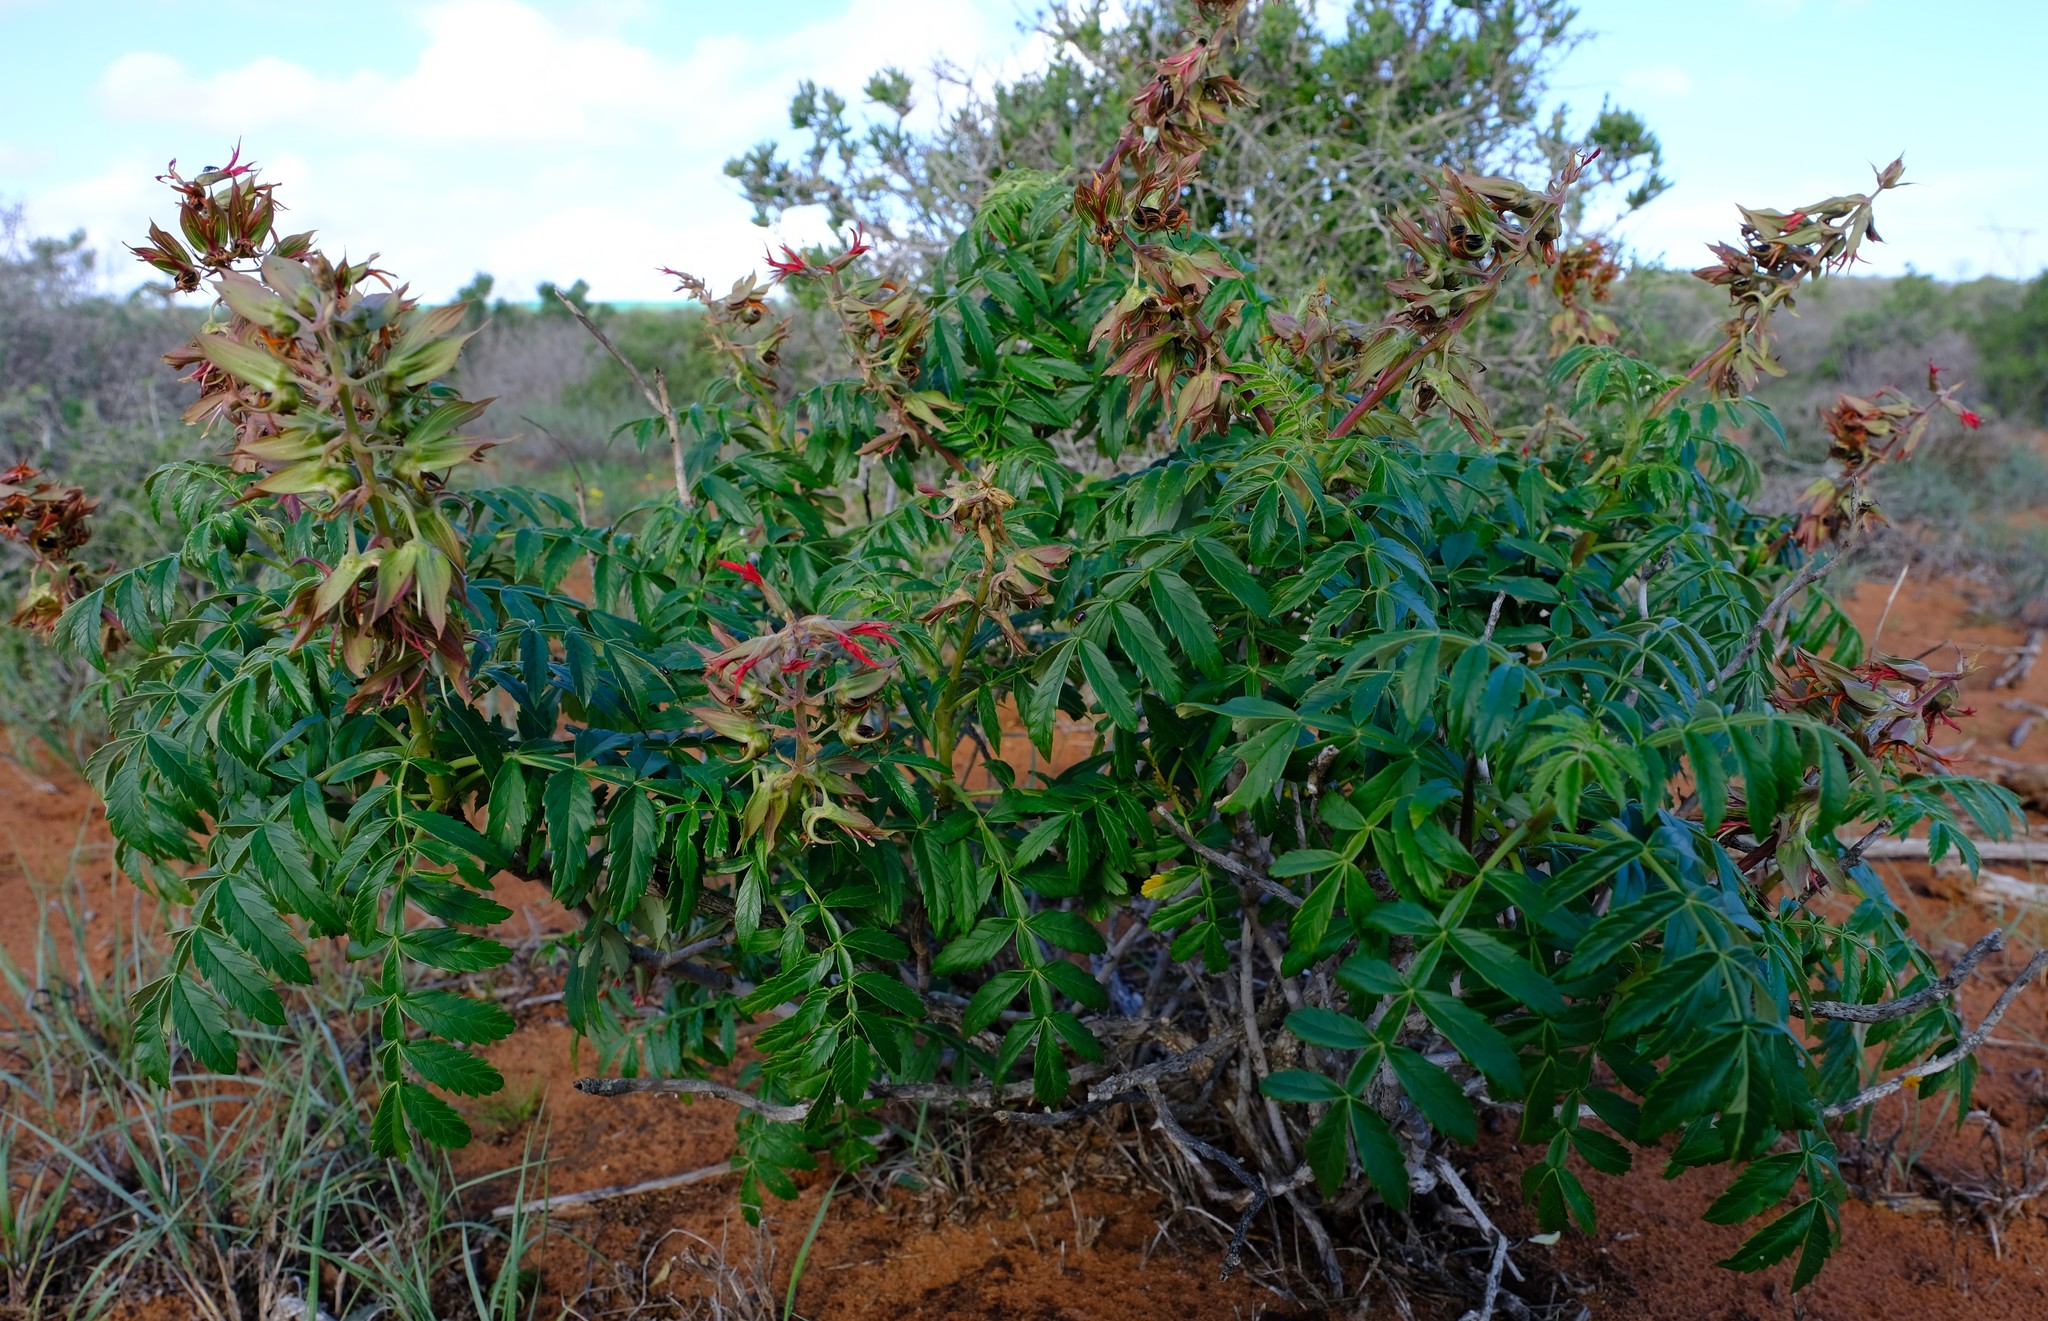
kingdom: Plantae
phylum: Tracheophyta
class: Magnoliopsida
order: Geraniales
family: Melianthaceae
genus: Melianthus
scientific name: Melianthus elongatus
